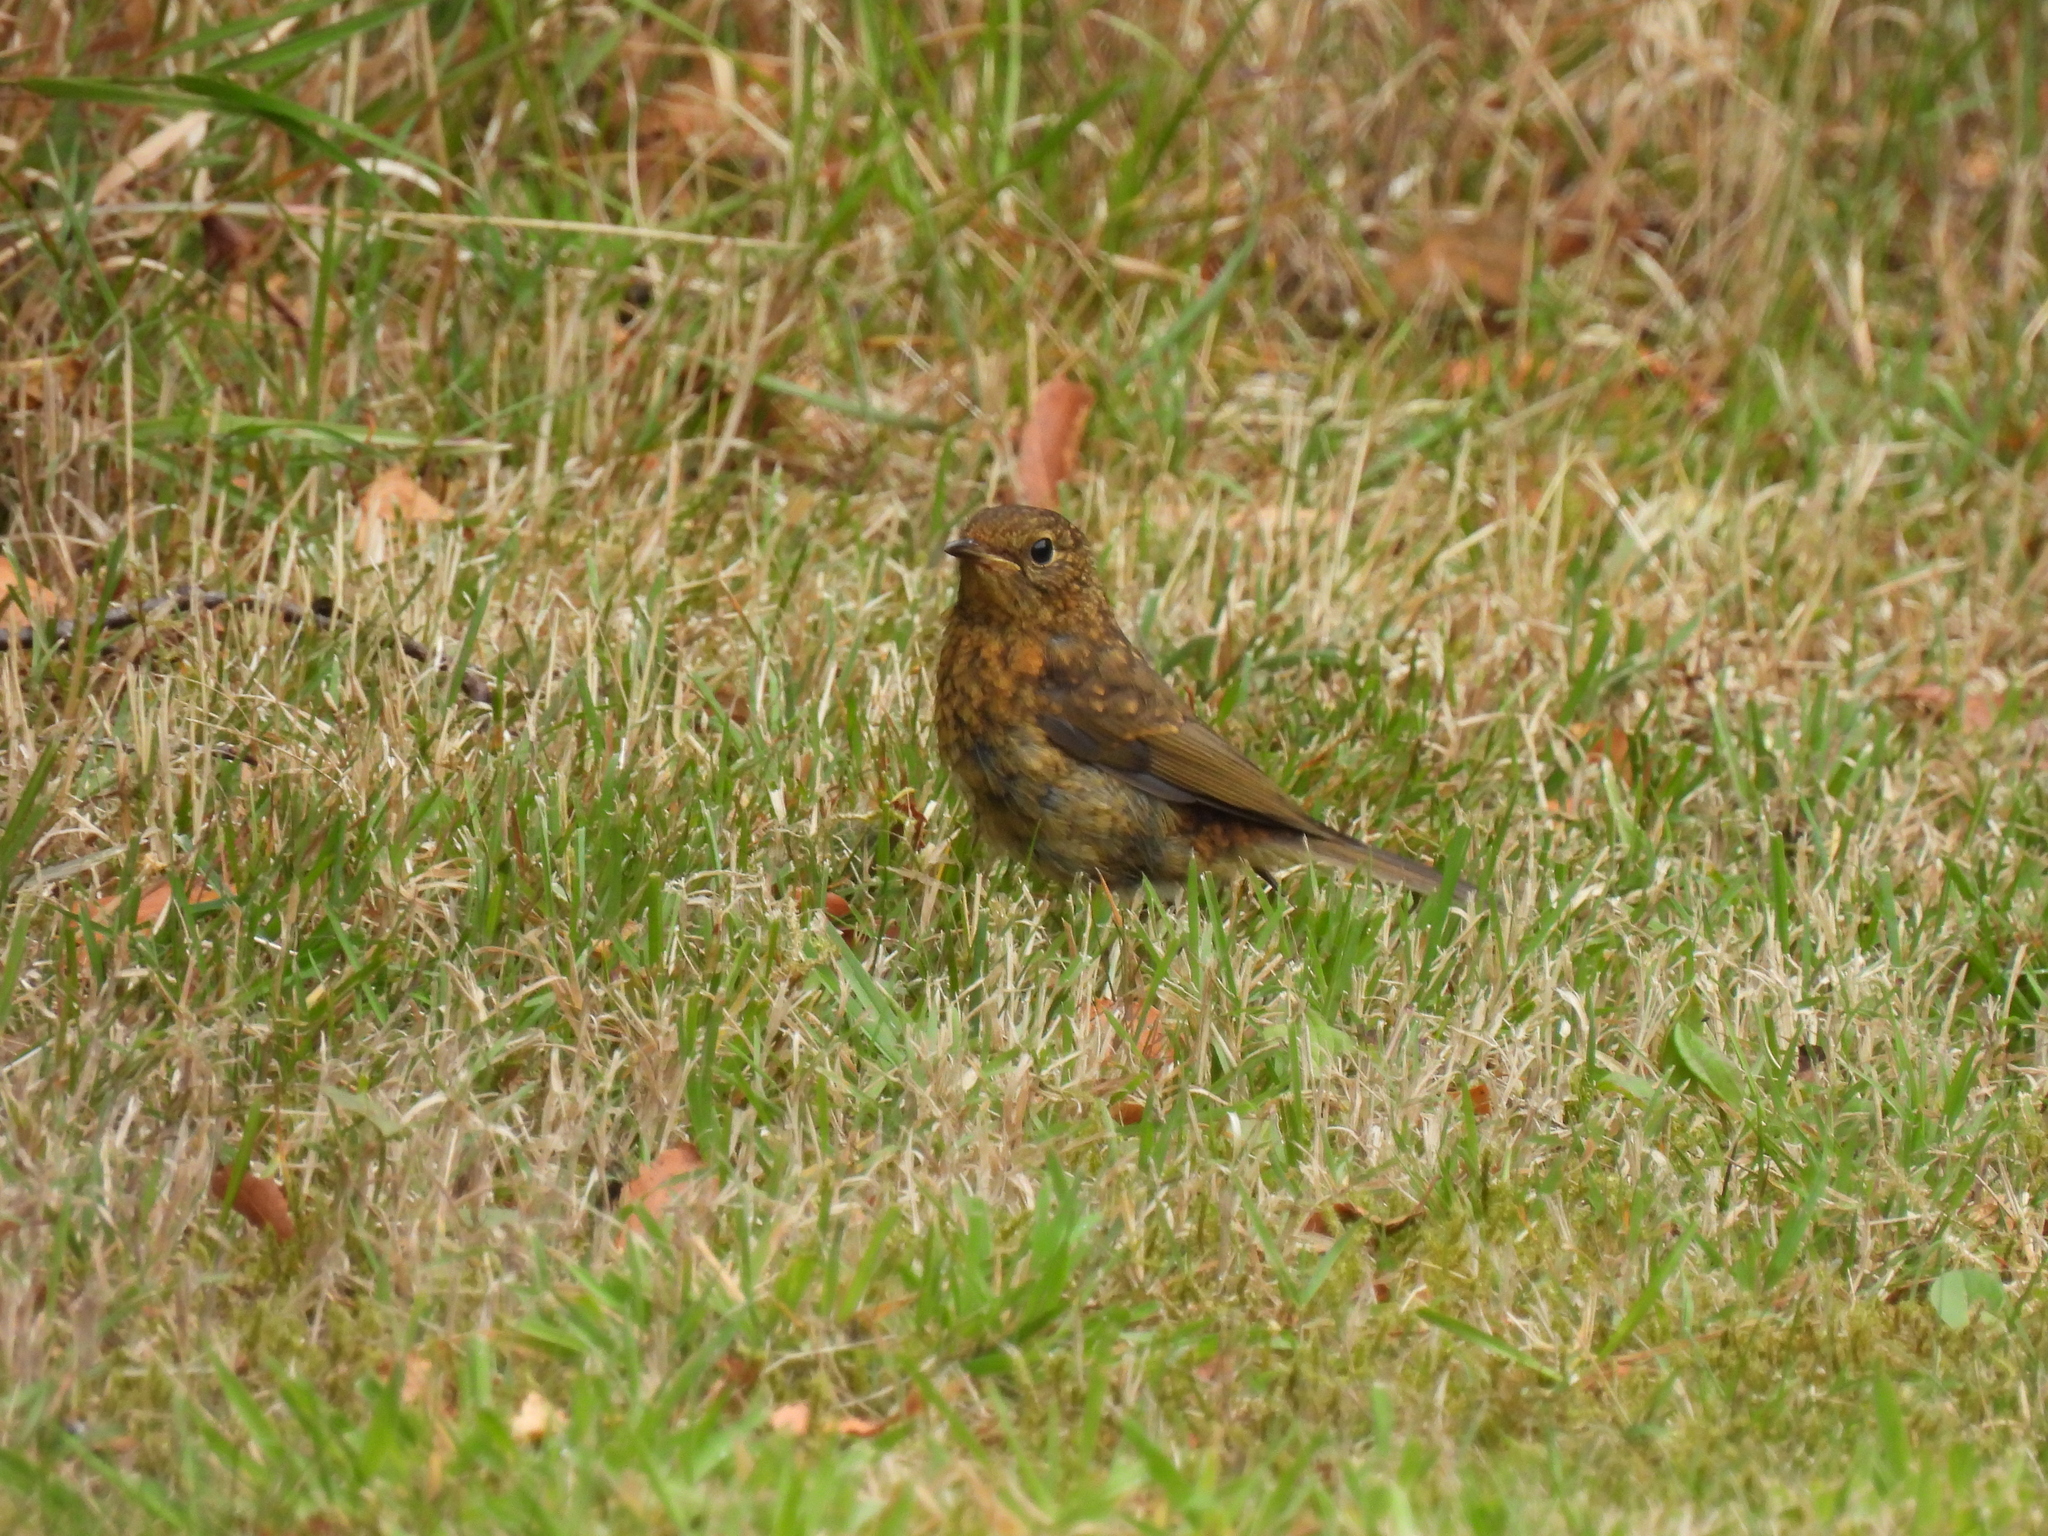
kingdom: Animalia
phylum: Chordata
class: Aves
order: Passeriformes
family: Muscicapidae
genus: Erithacus
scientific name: Erithacus rubecula
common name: European robin
